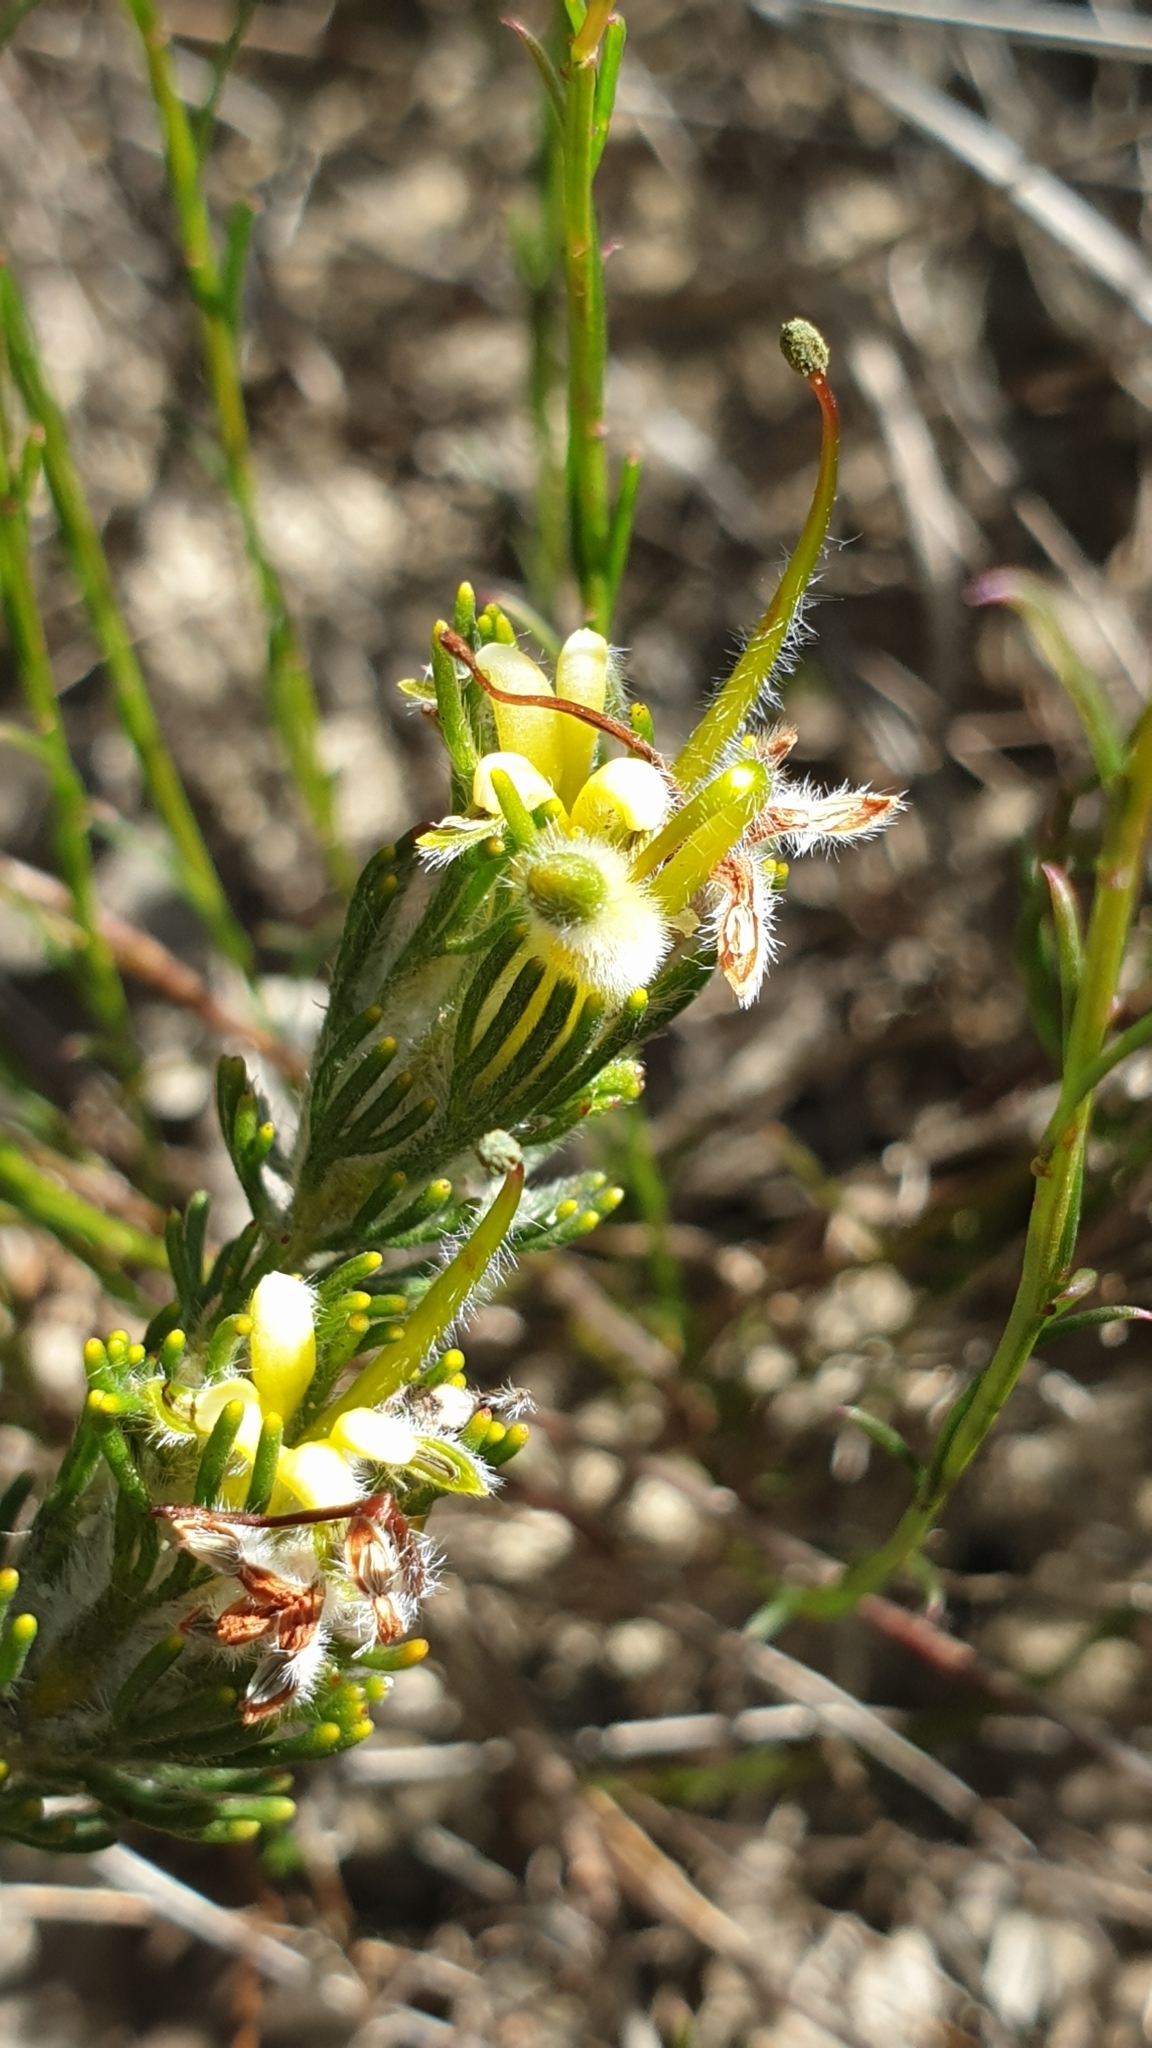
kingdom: Plantae
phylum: Tracheophyta
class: Magnoliopsida
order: Proteales
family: Proteaceae
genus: Adenanthos
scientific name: Adenanthos terminalis
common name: Yellow gland-flower
